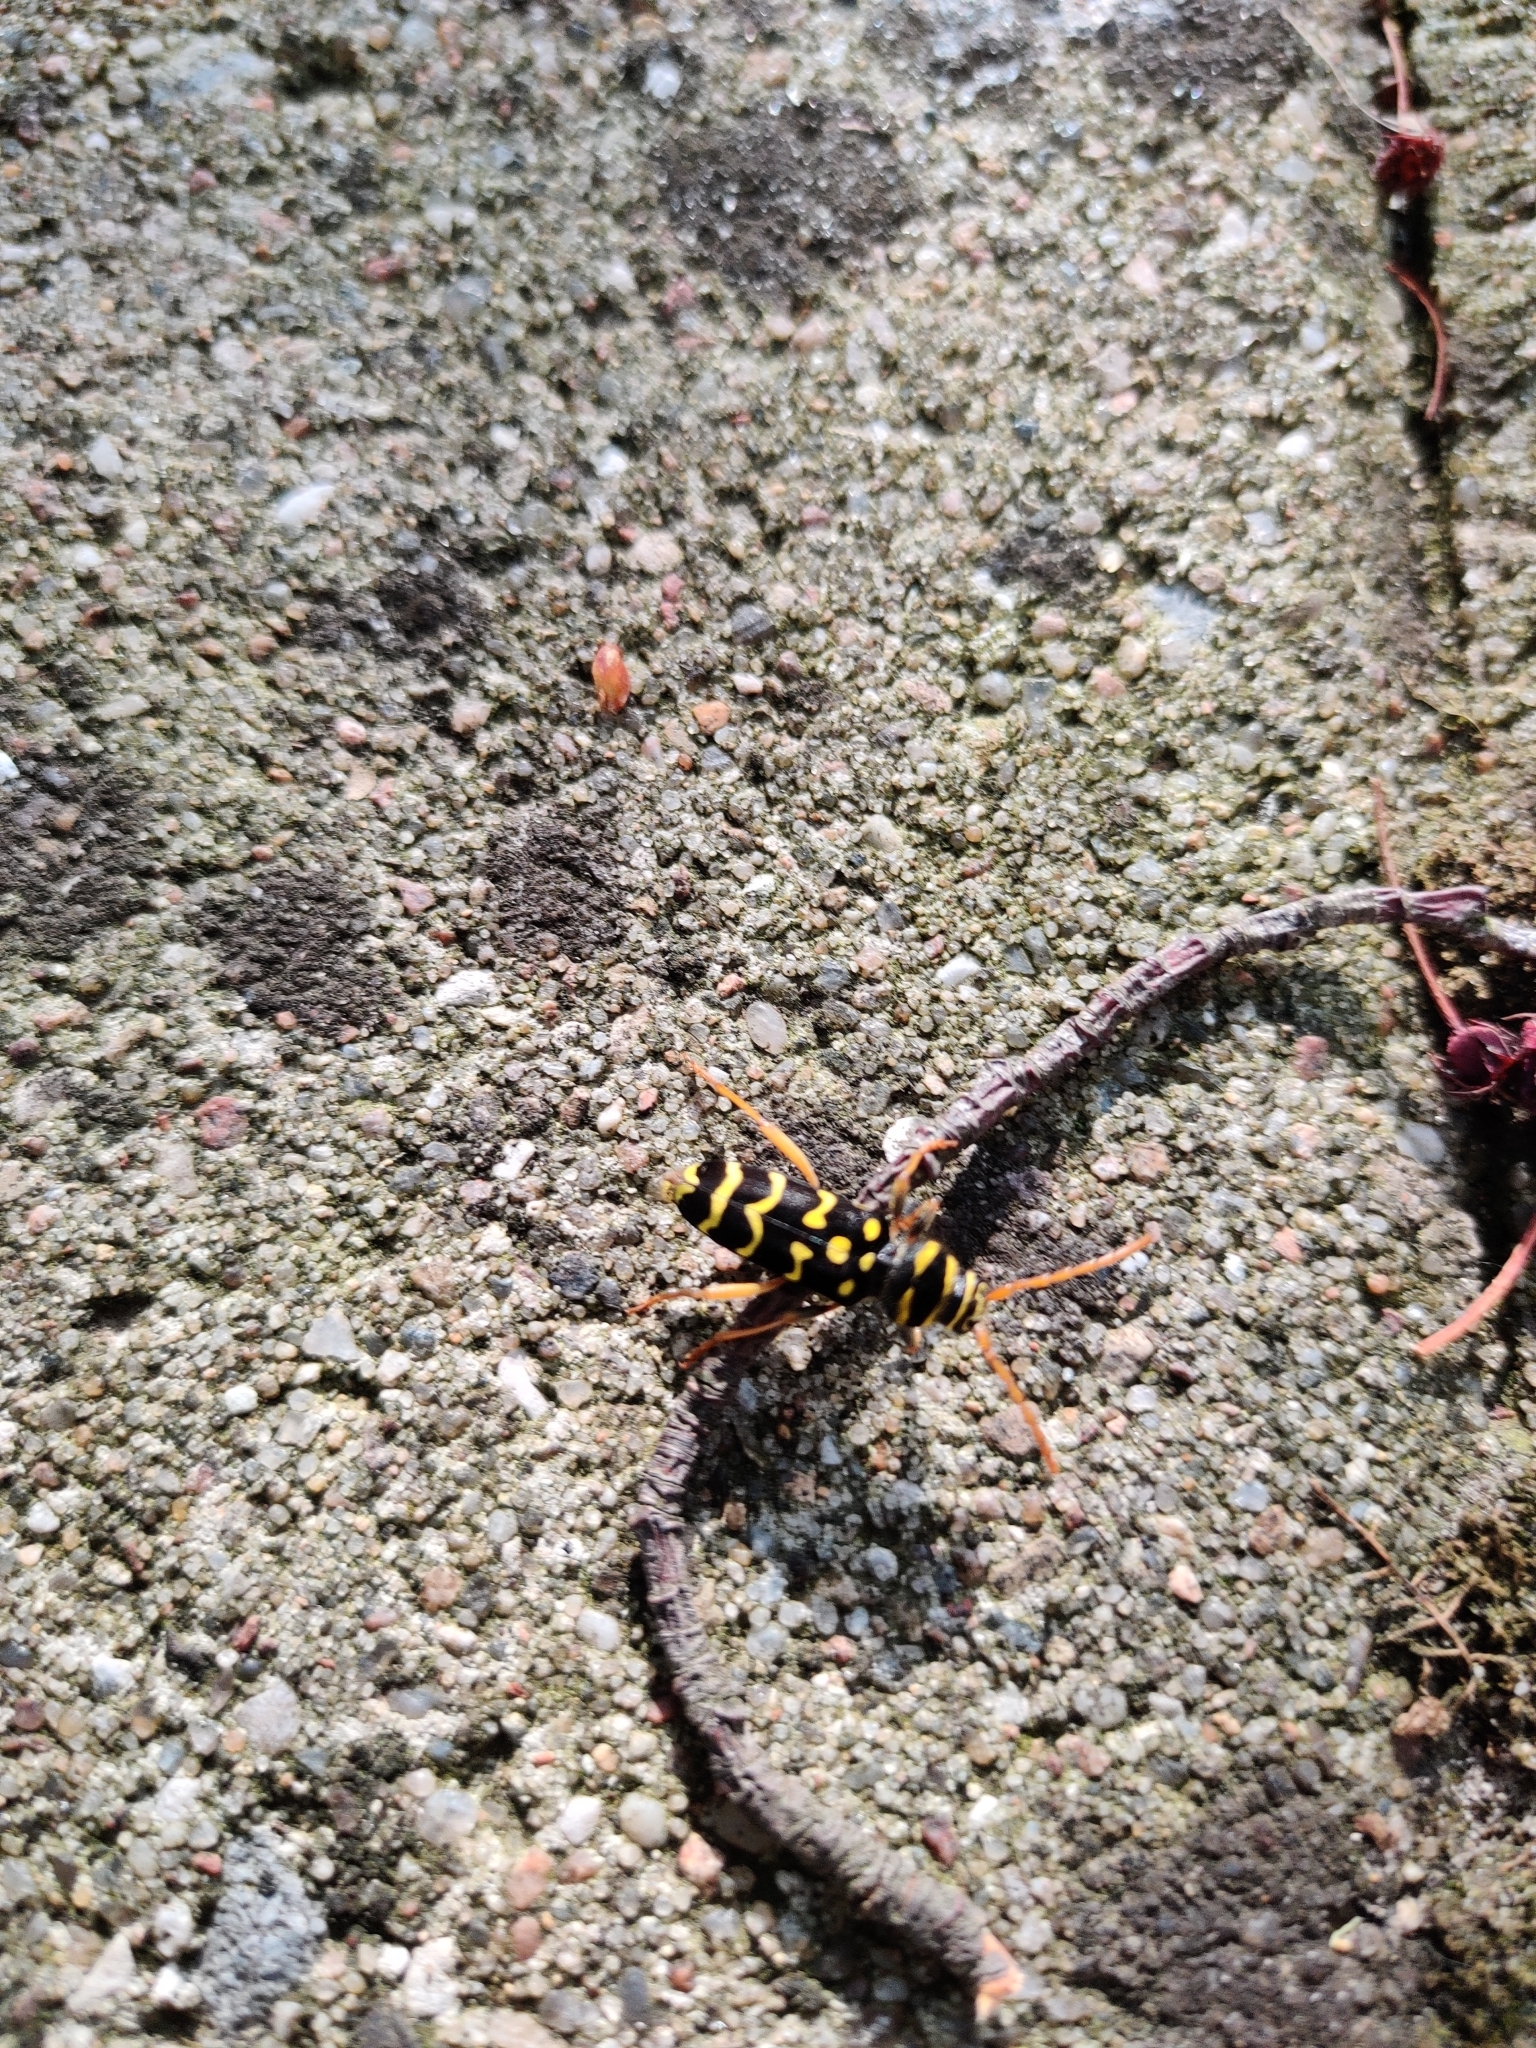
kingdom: Animalia
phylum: Arthropoda
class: Insecta
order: Coleoptera
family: Cerambycidae
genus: Plagionotus
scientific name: Plagionotus arcuatus
